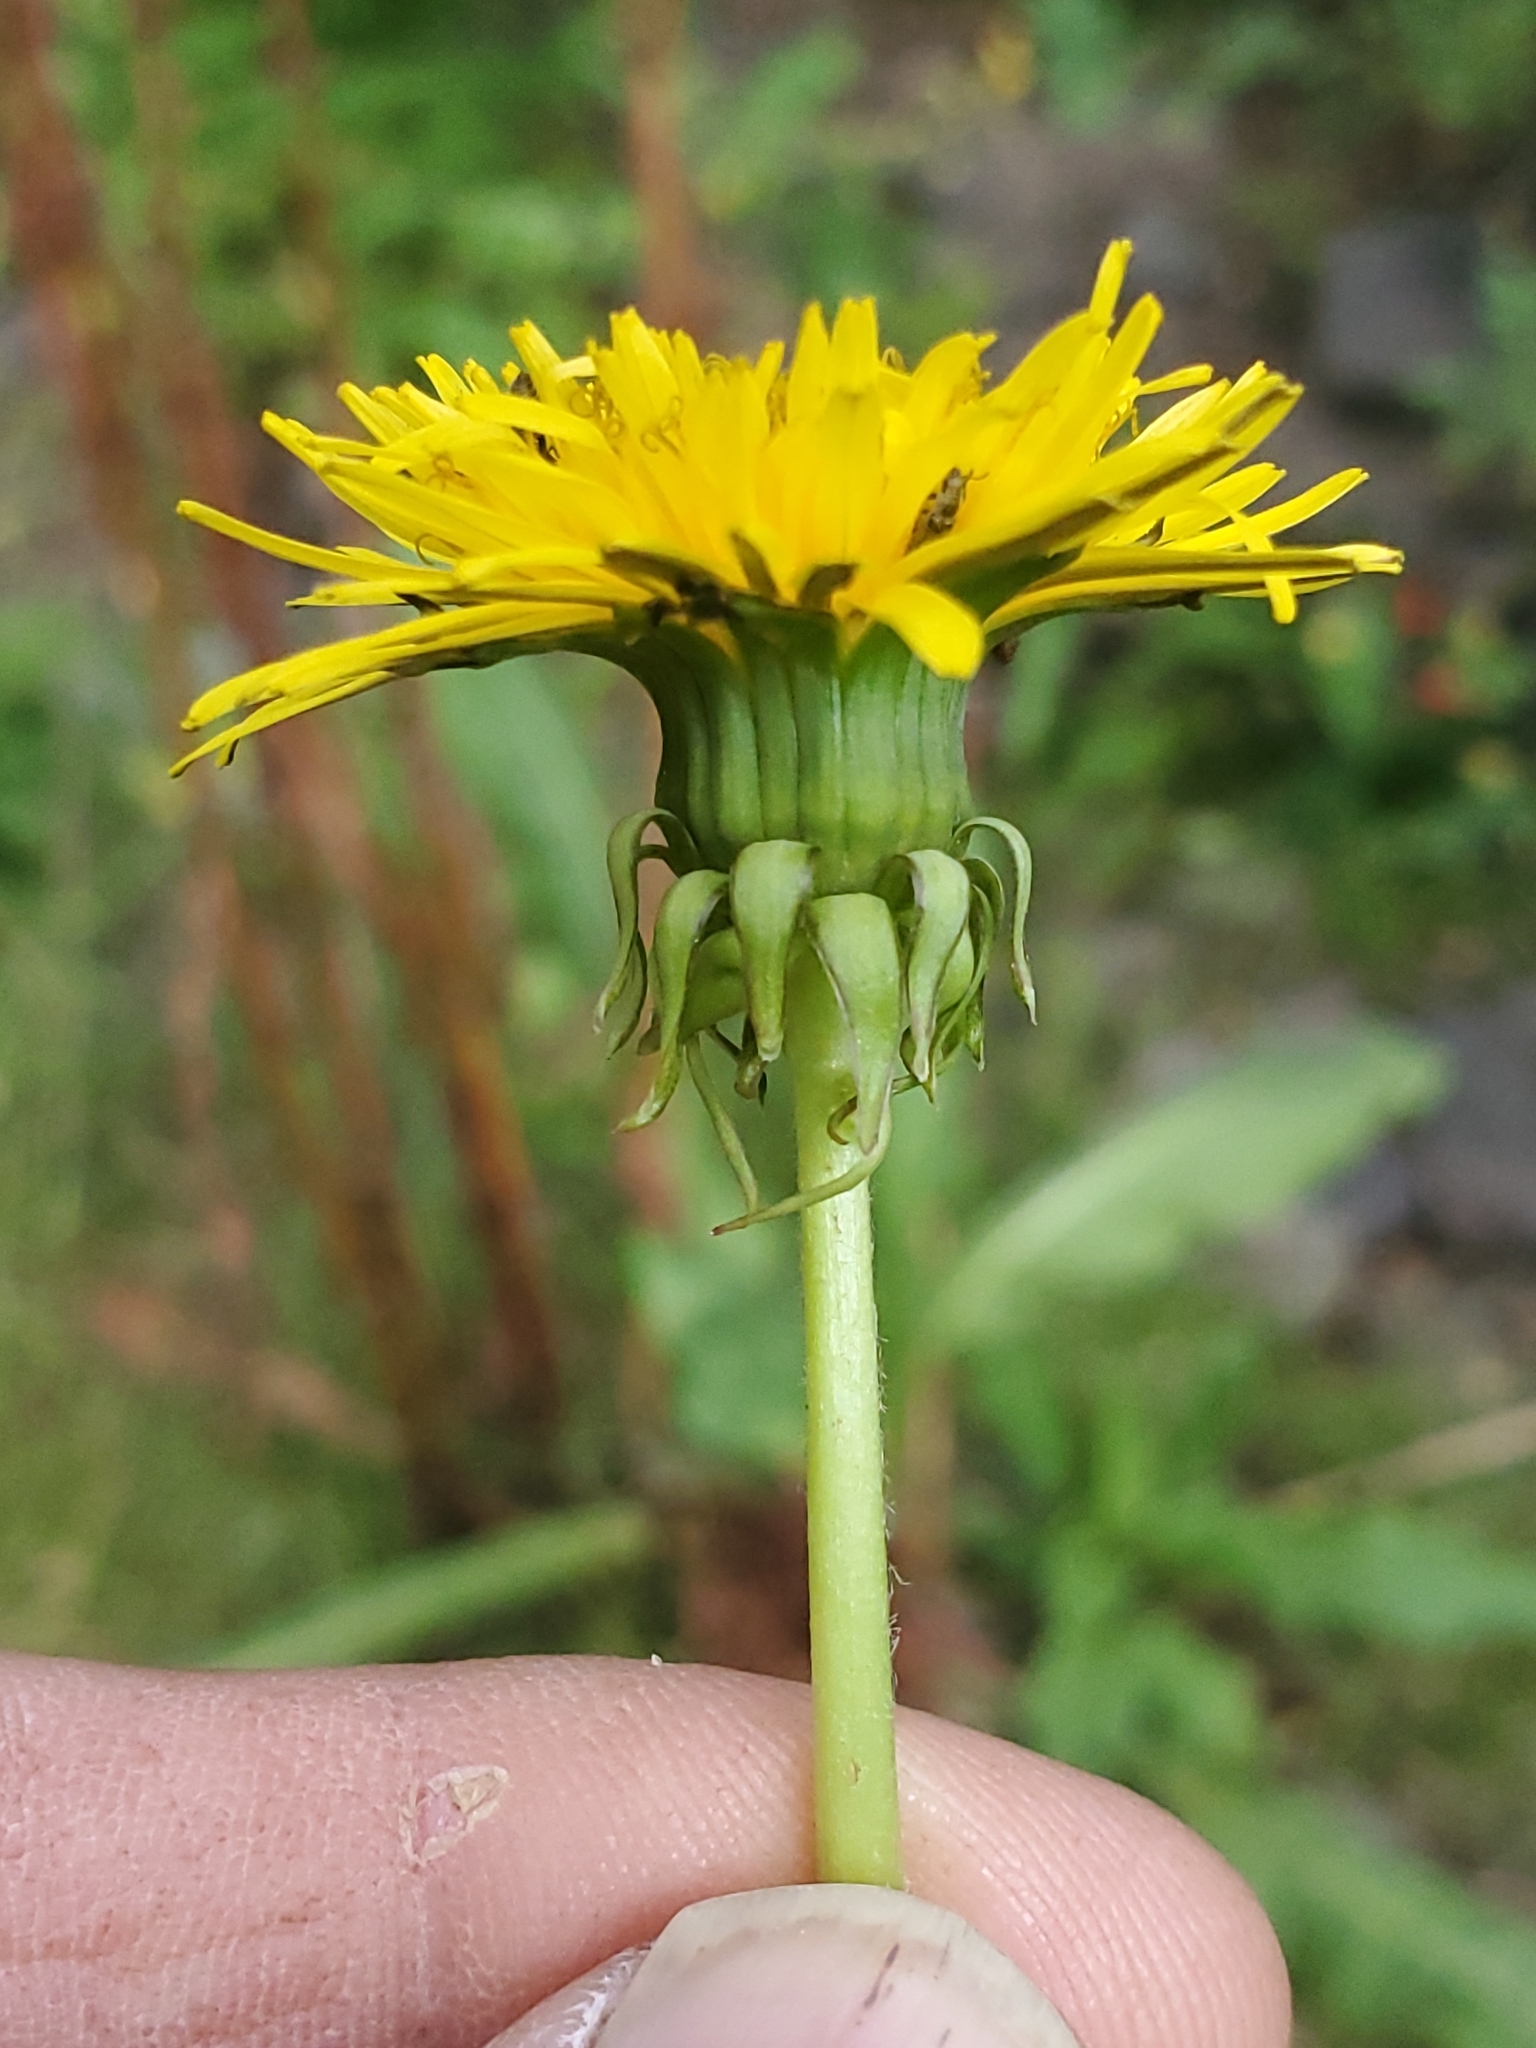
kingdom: Plantae
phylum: Tracheophyta
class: Magnoliopsida
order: Asterales
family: Asteraceae
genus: Taraxacum
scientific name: Taraxacum officinale
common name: Common dandelion
